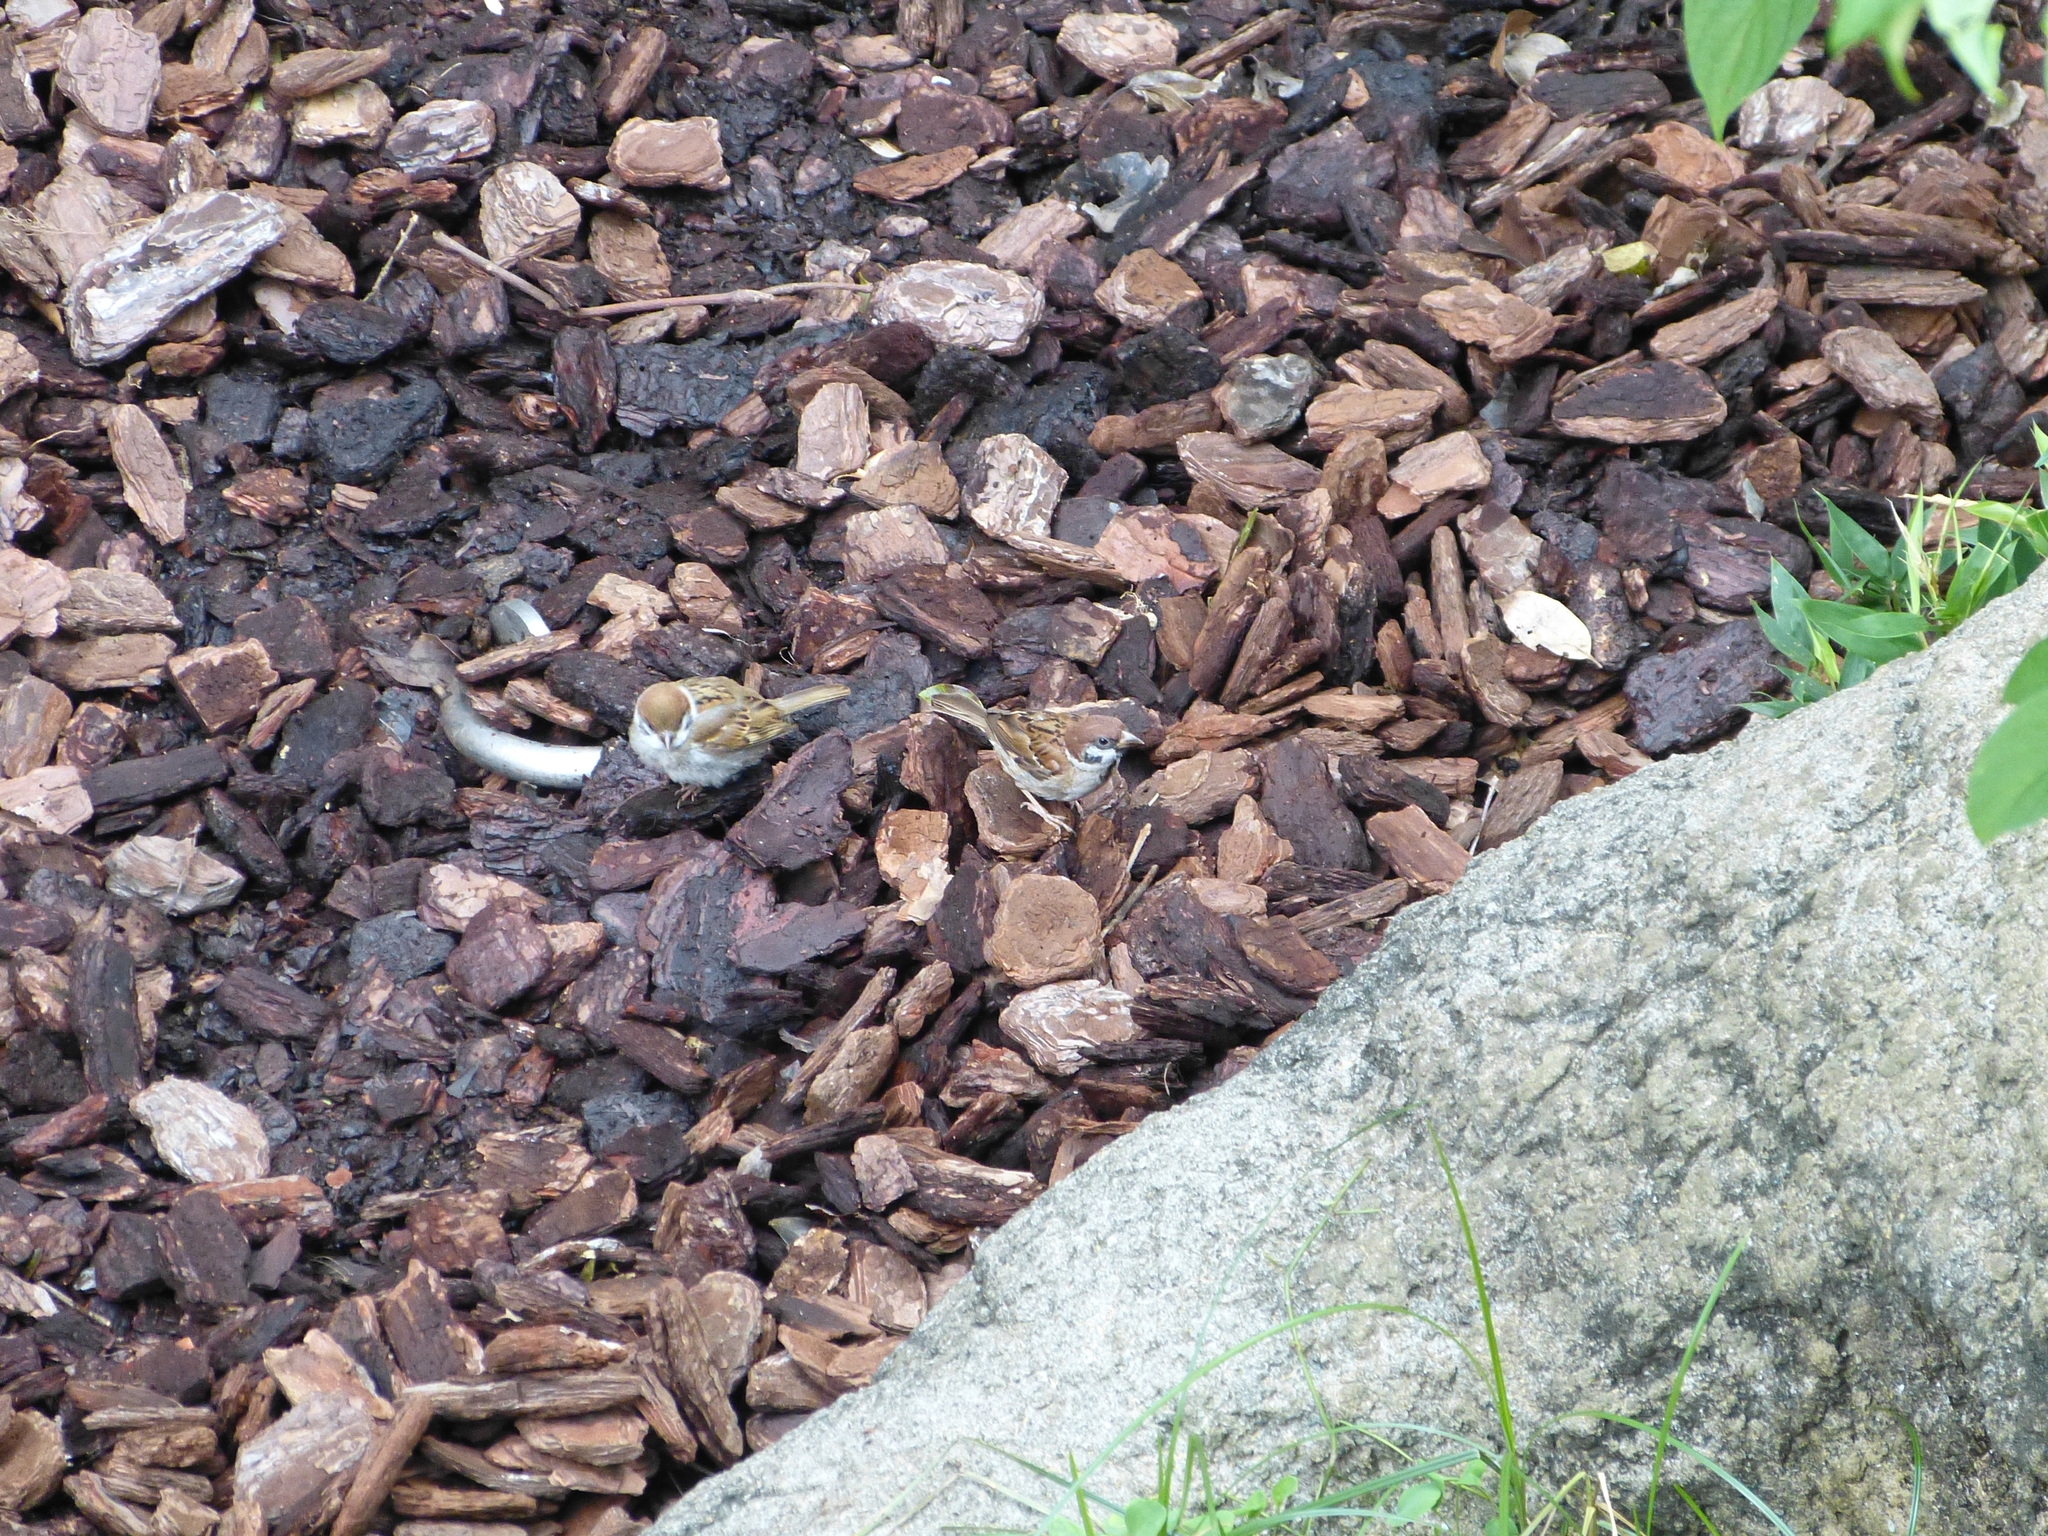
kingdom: Animalia
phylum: Chordata
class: Aves
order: Passeriformes
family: Passeridae
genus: Passer
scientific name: Passer montanus
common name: Eurasian tree sparrow
